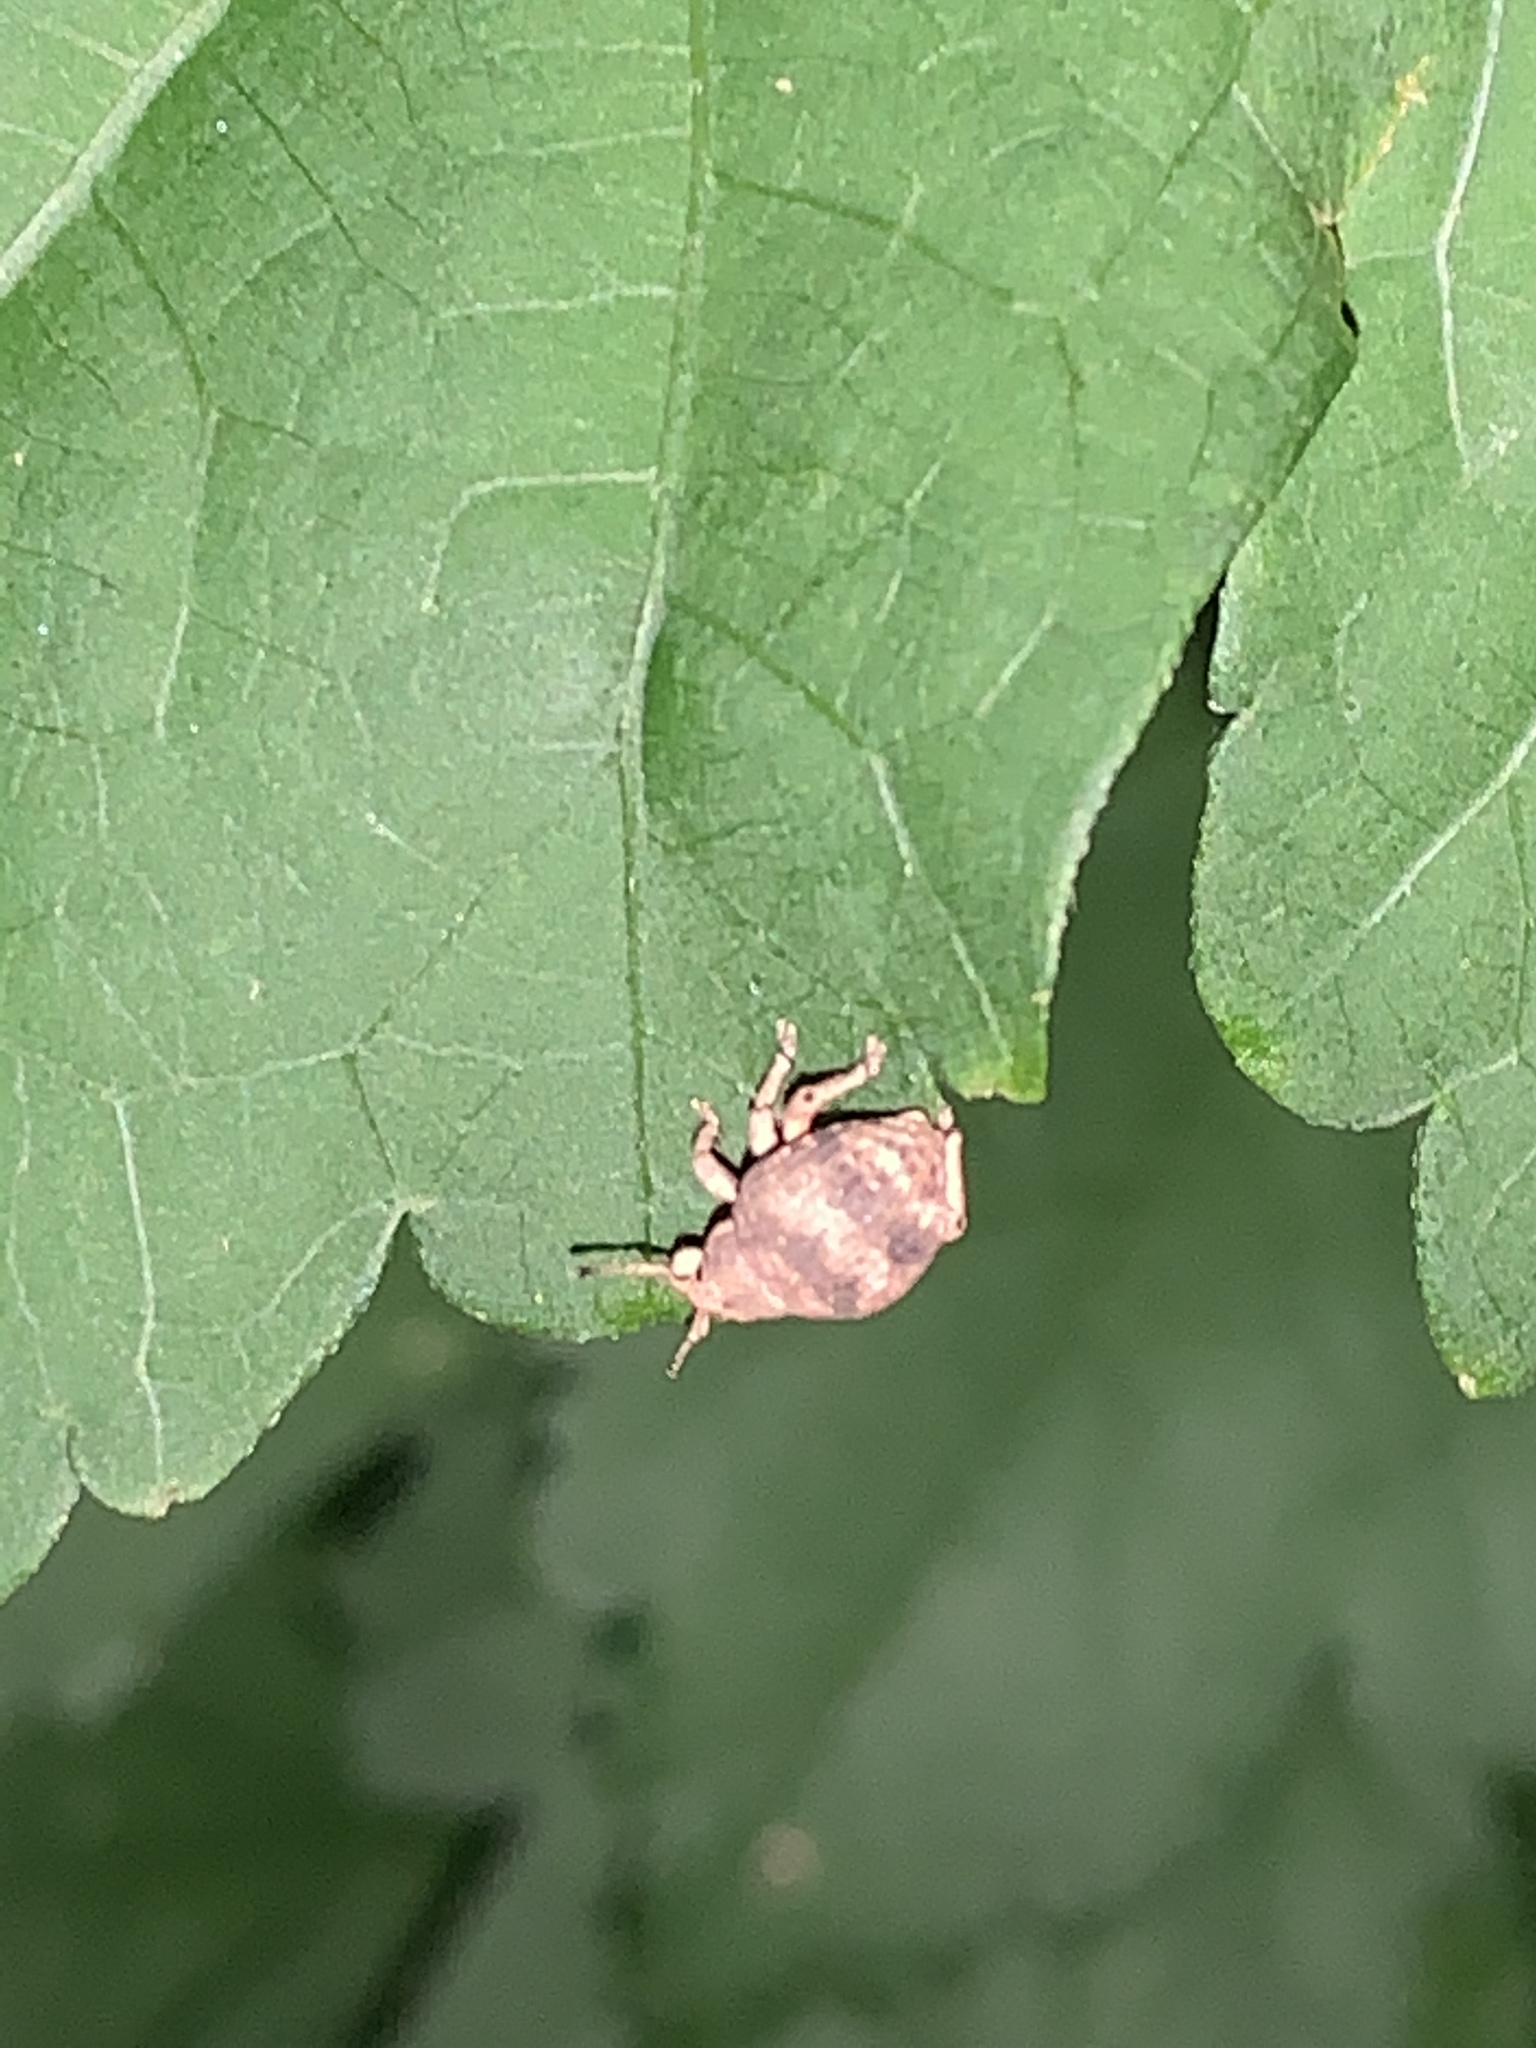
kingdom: Animalia
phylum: Arthropoda
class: Insecta
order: Coleoptera
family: Curculionidae
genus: Pseudocneorhinus
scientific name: Pseudocneorhinus bifasciatus
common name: Two-banded japanese weevil
